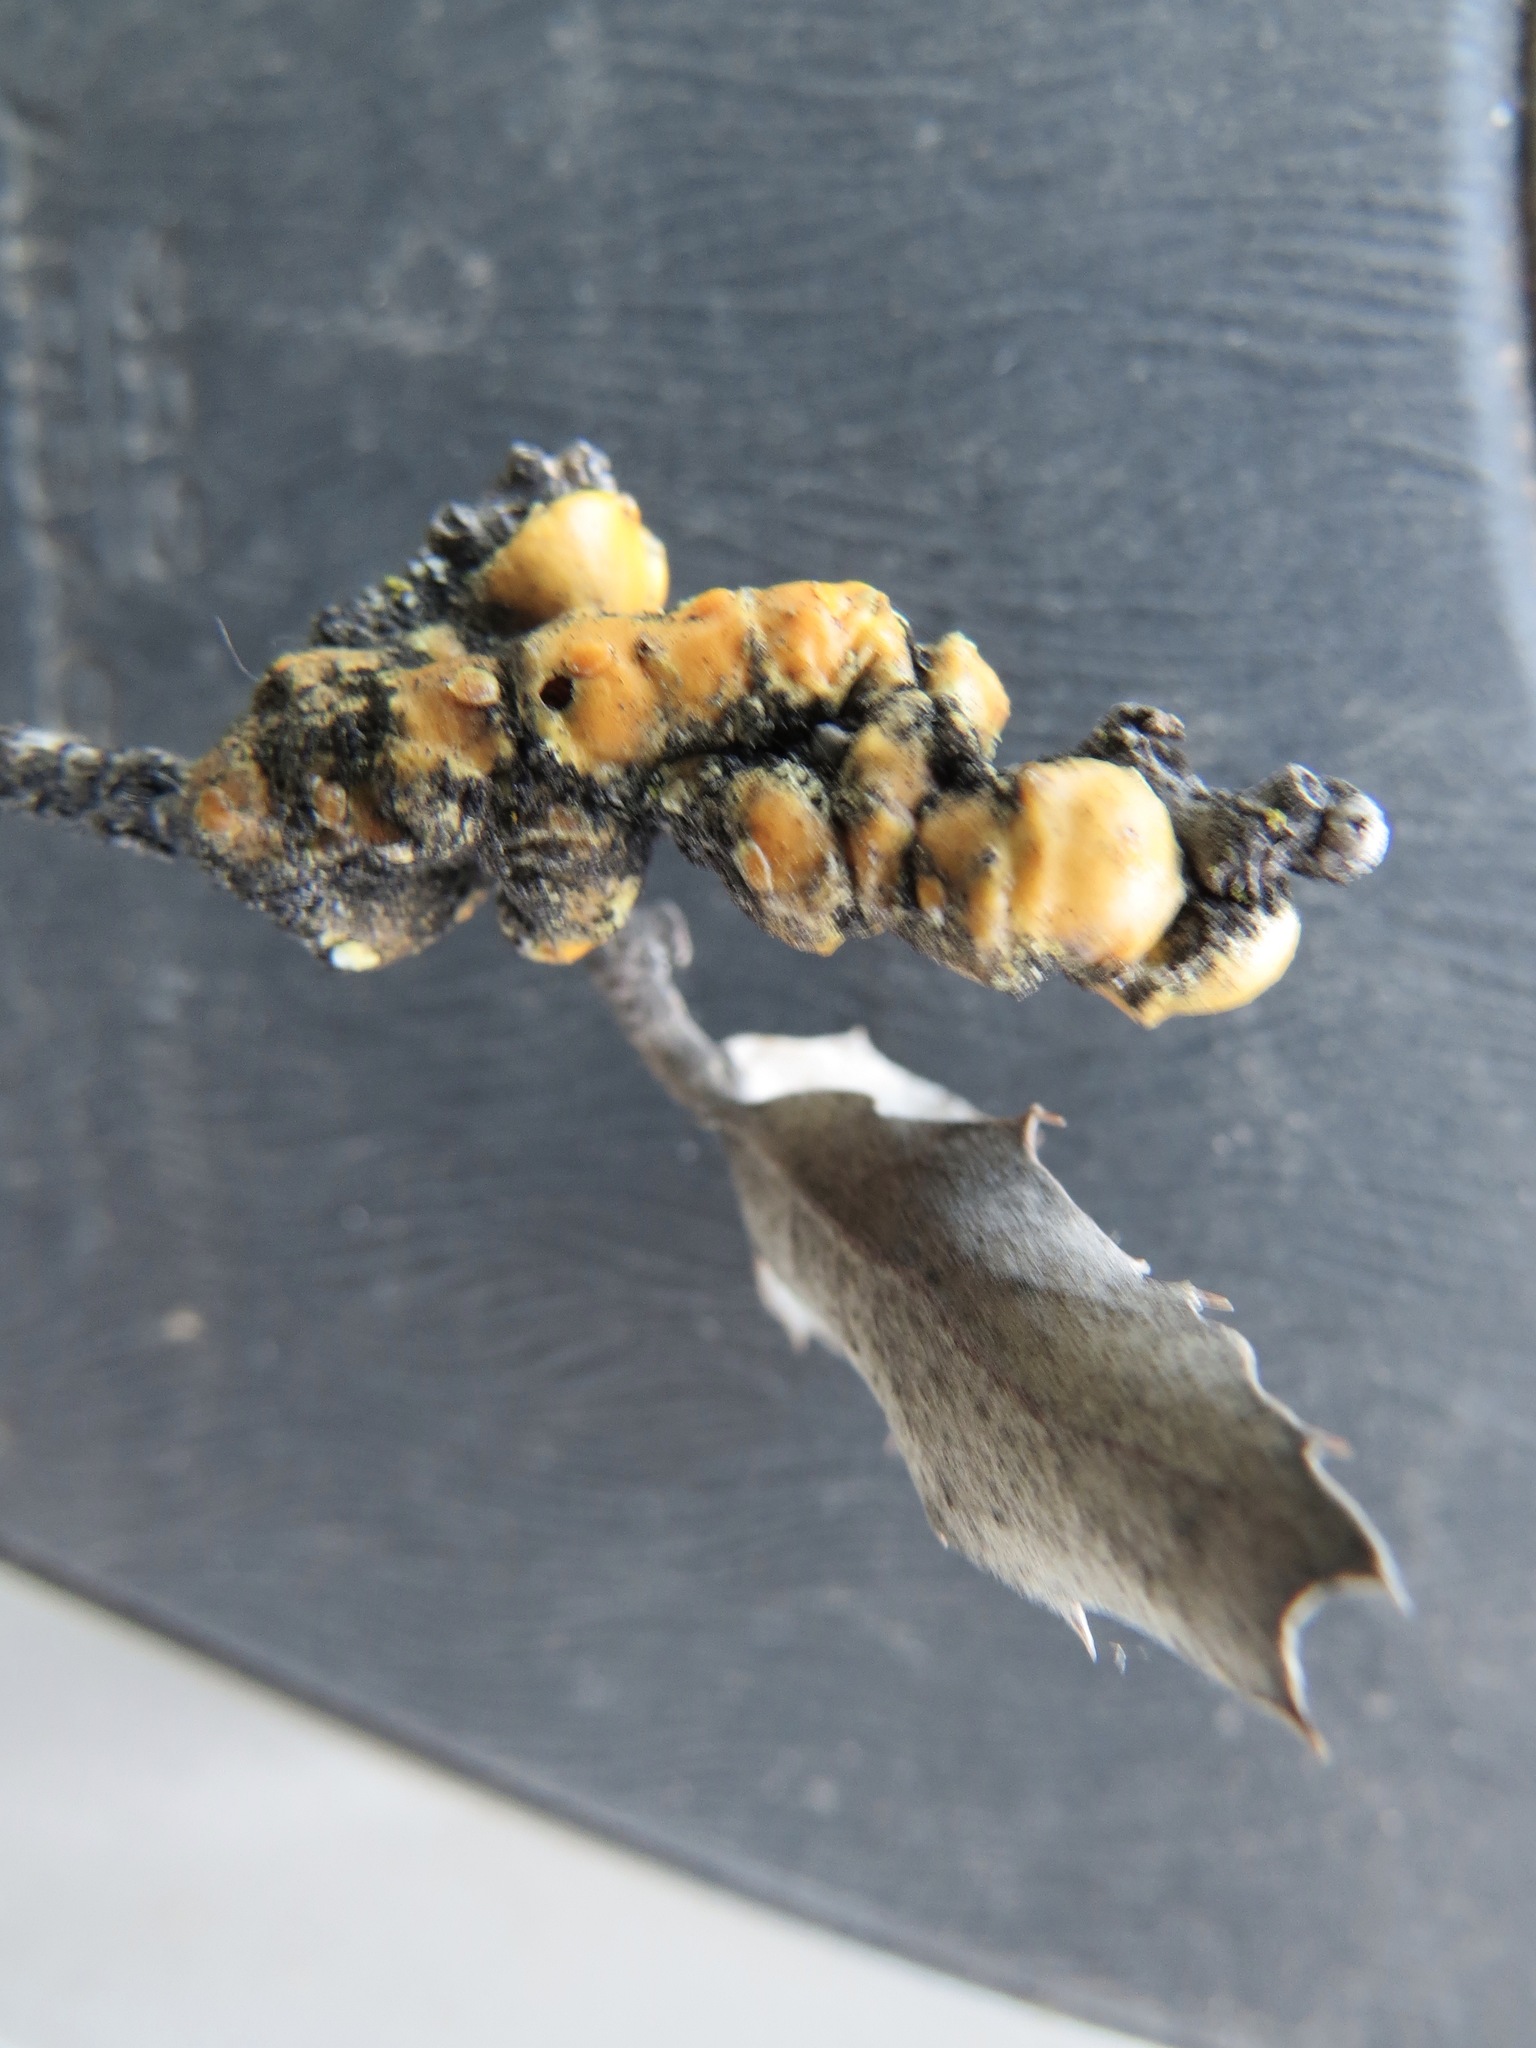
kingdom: Animalia
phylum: Arthropoda
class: Insecta
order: Hemiptera
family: Cerococcidae
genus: Cerococcus
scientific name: Cerococcus quercus
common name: Oak cerococcus
